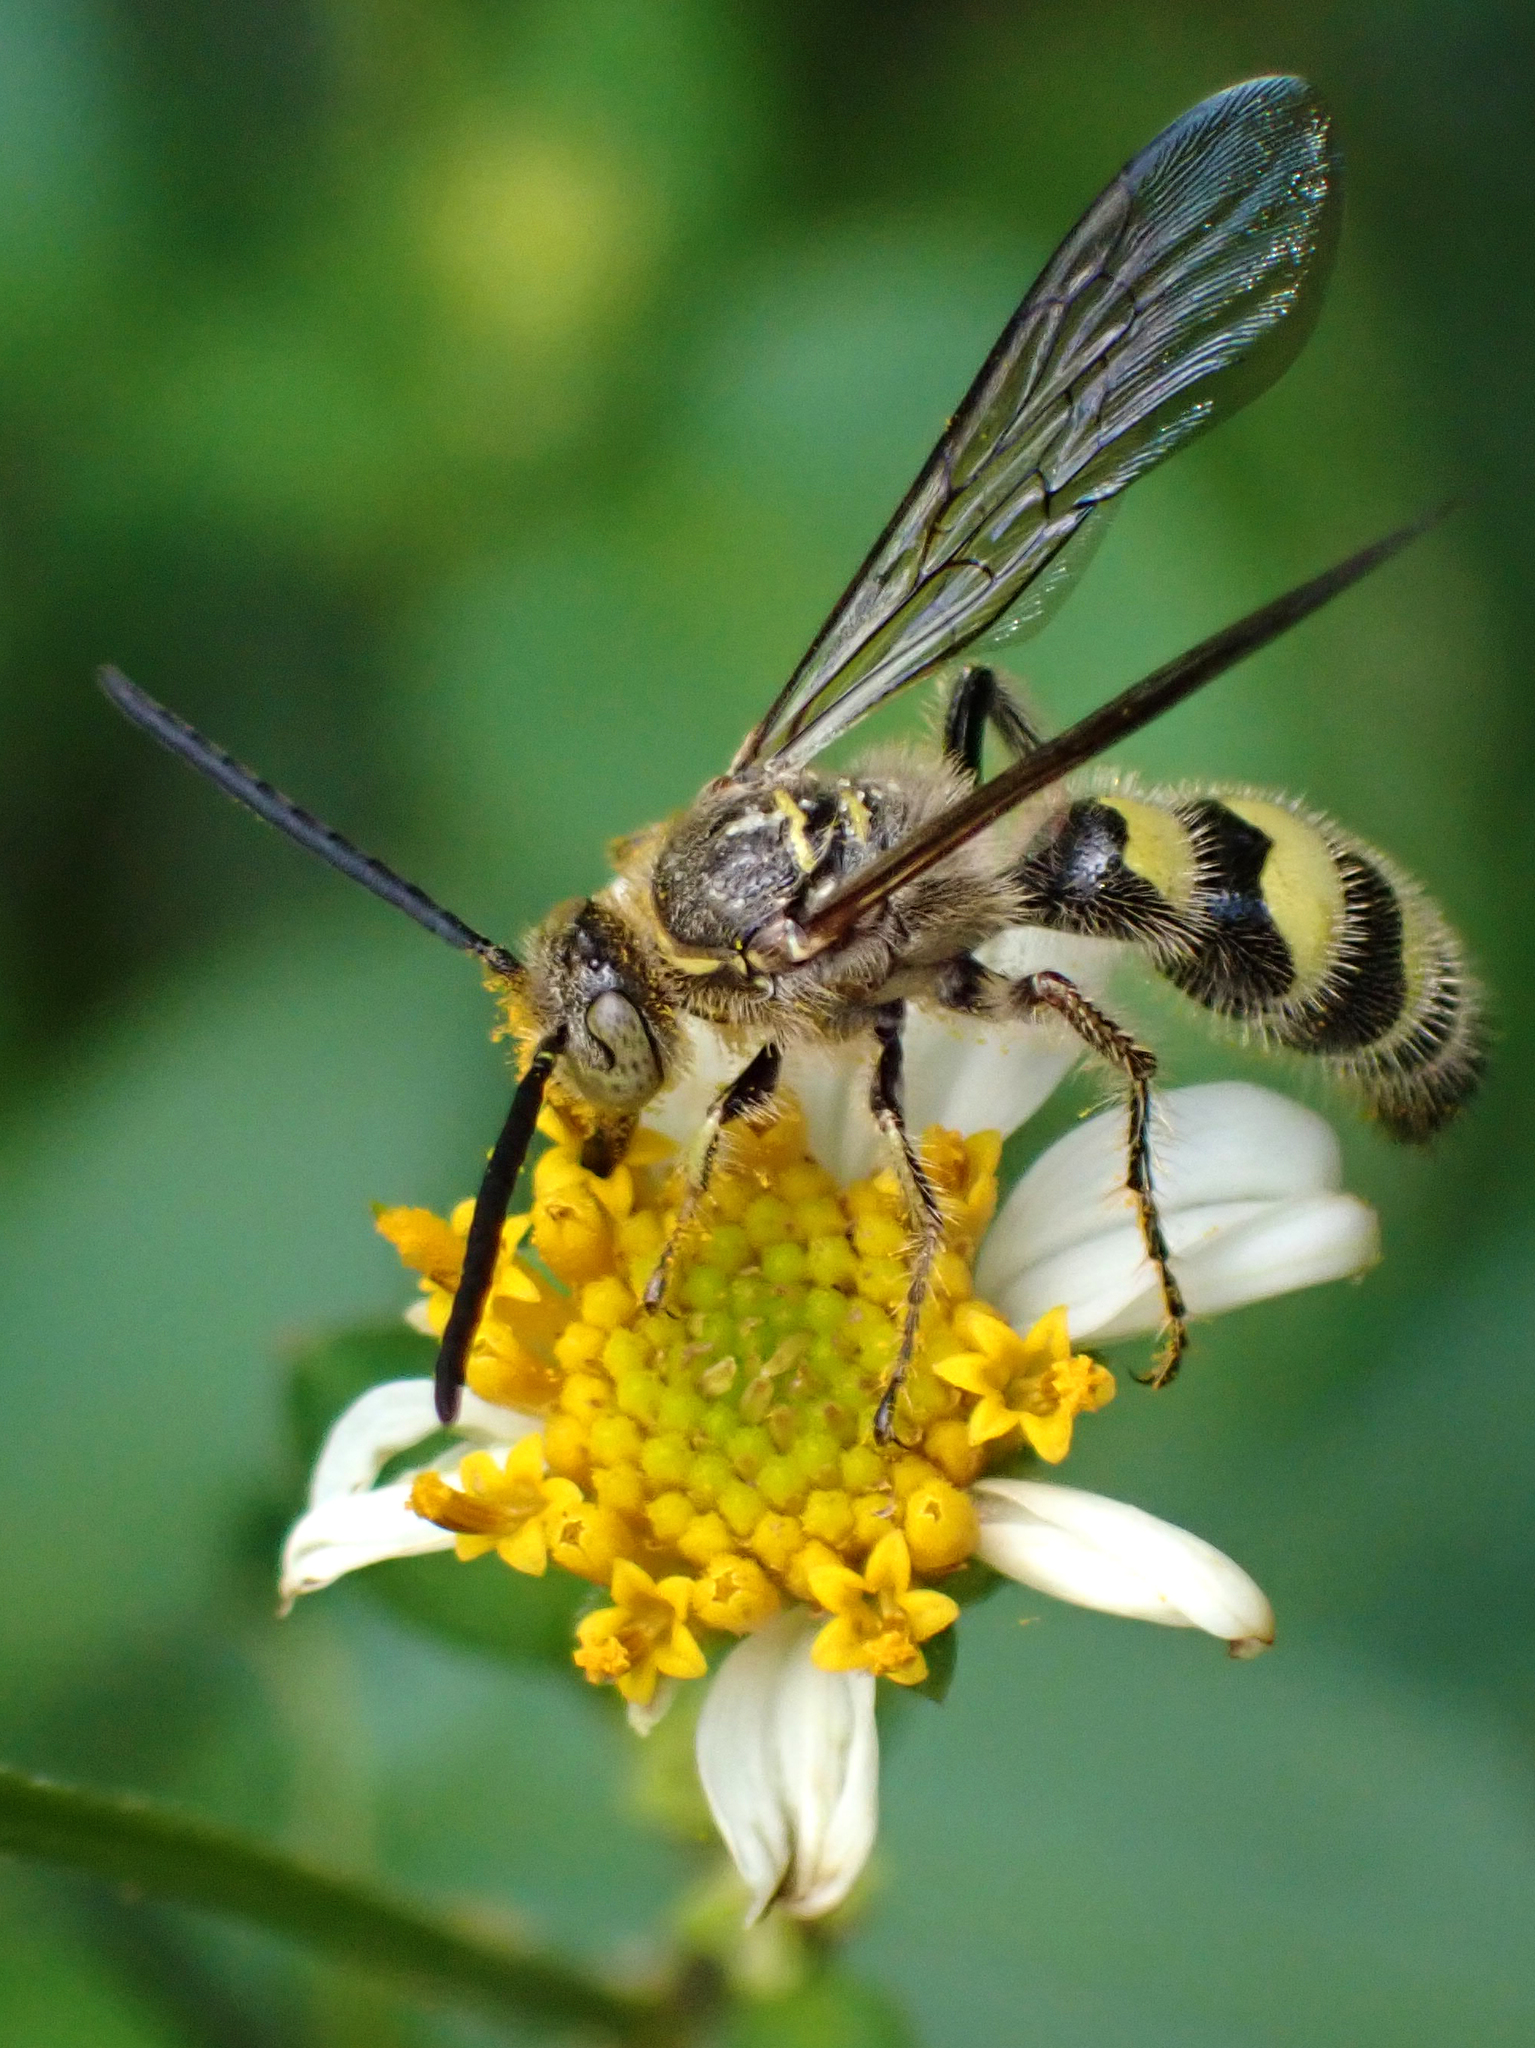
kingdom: Animalia
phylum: Arthropoda
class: Insecta
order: Hymenoptera
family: Scoliidae
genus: Dielis
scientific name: Dielis
